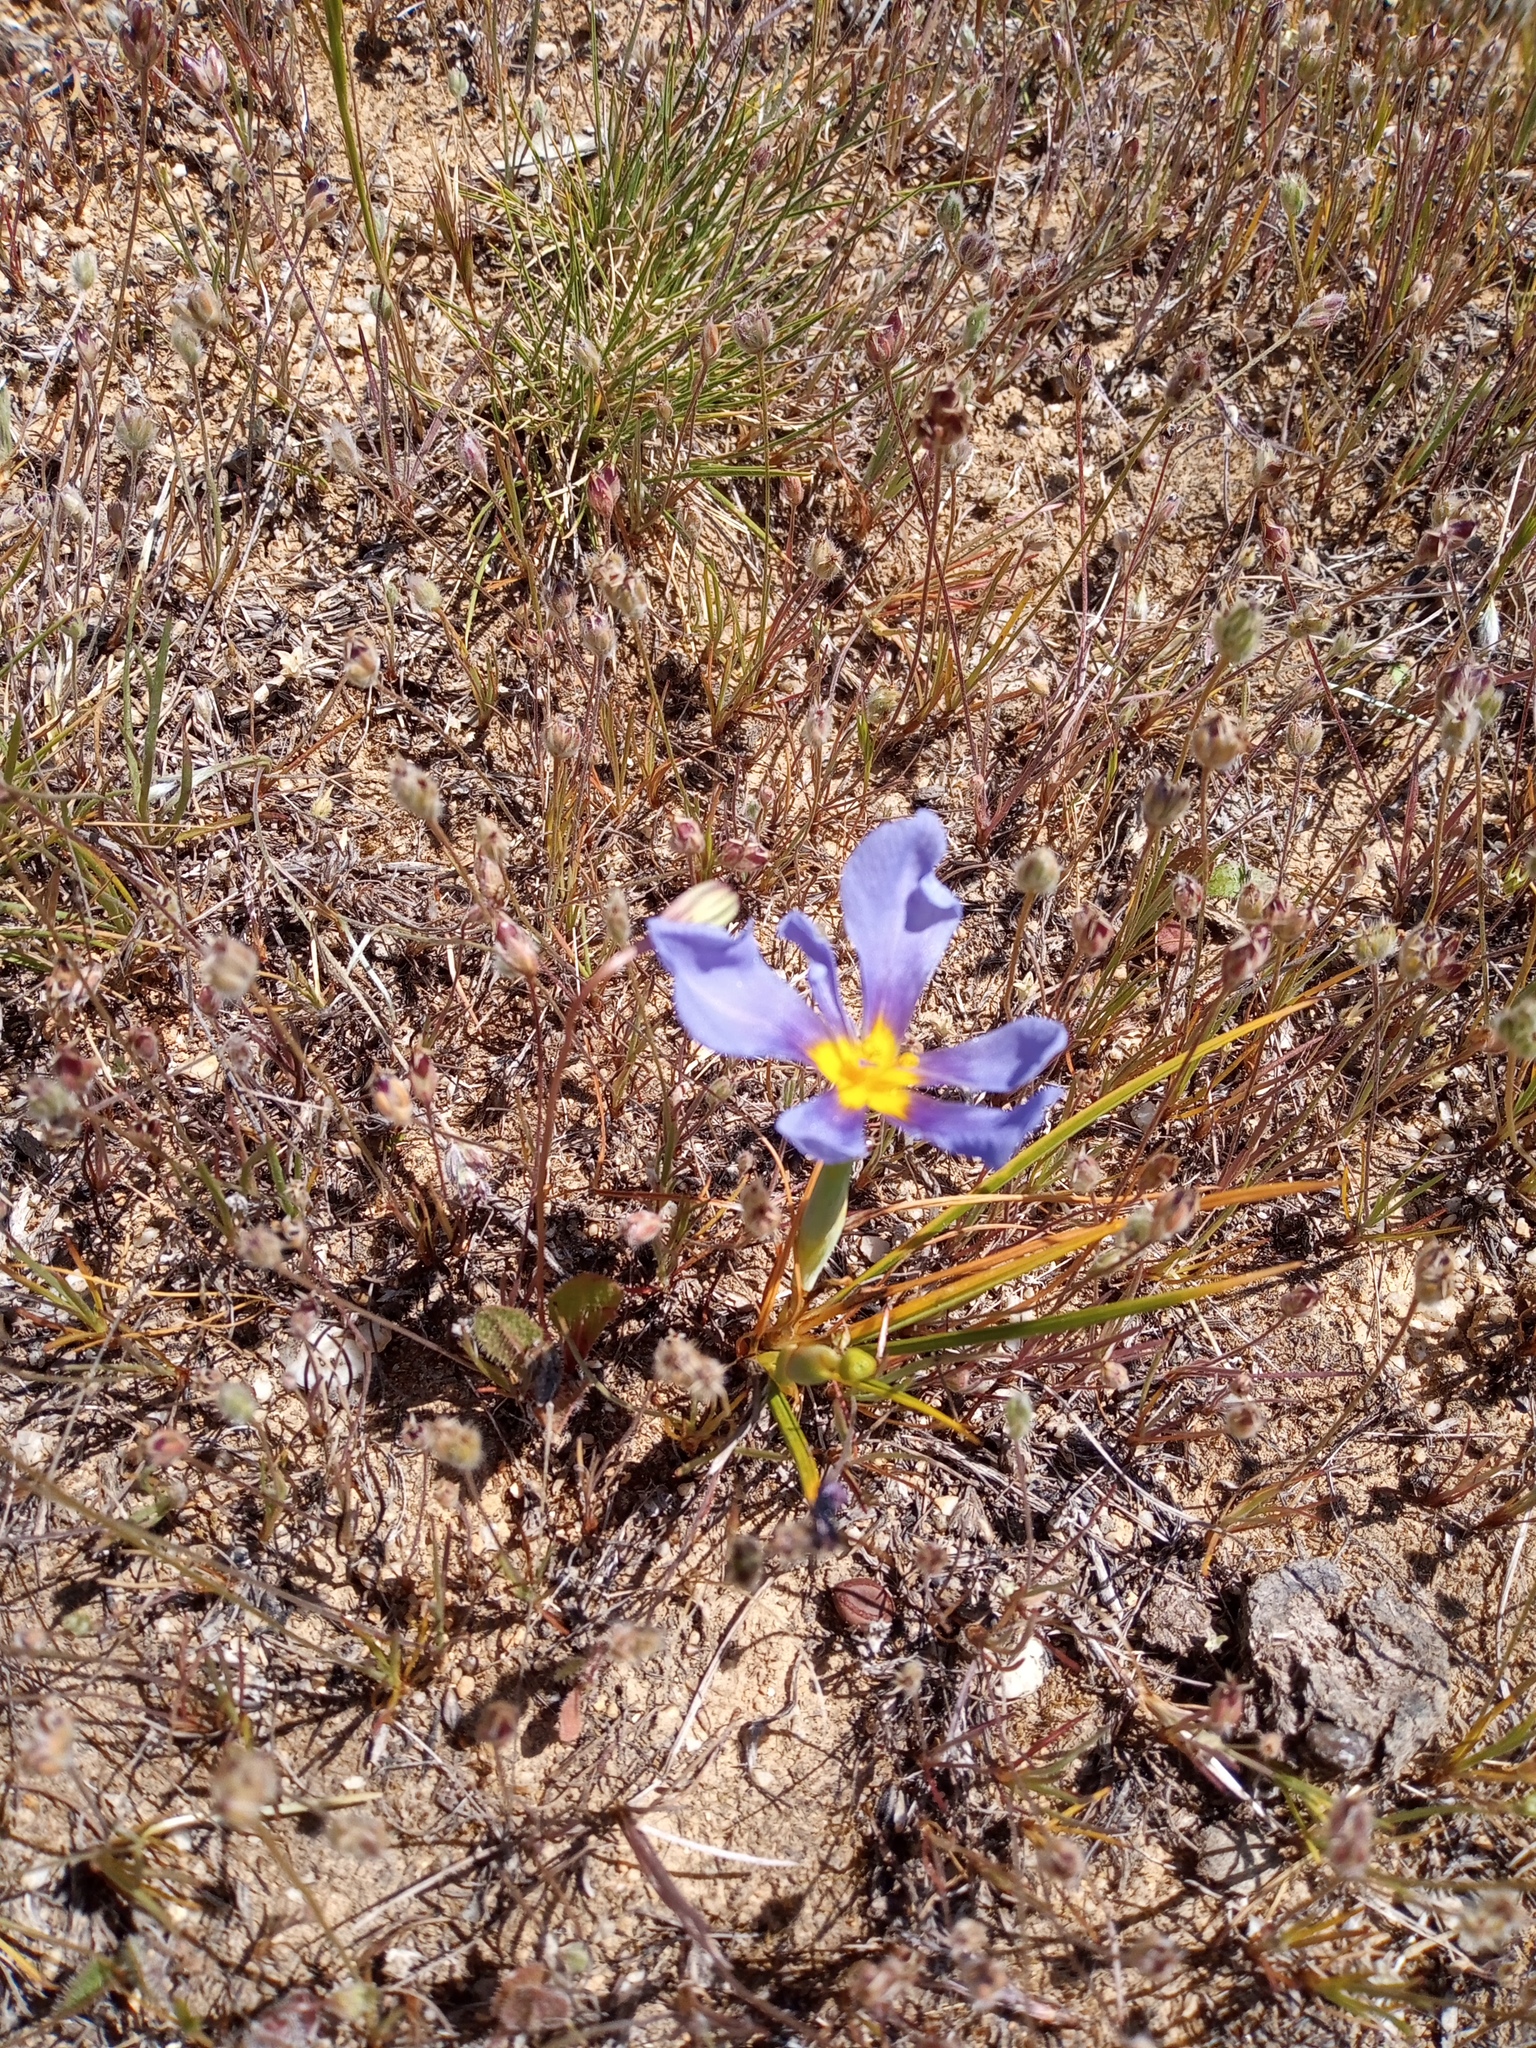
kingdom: Plantae
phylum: Tracheophyta
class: Liliopsida
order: Asparagales
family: Iridaceae
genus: Calydorea
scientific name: Calydorea xiphioides
